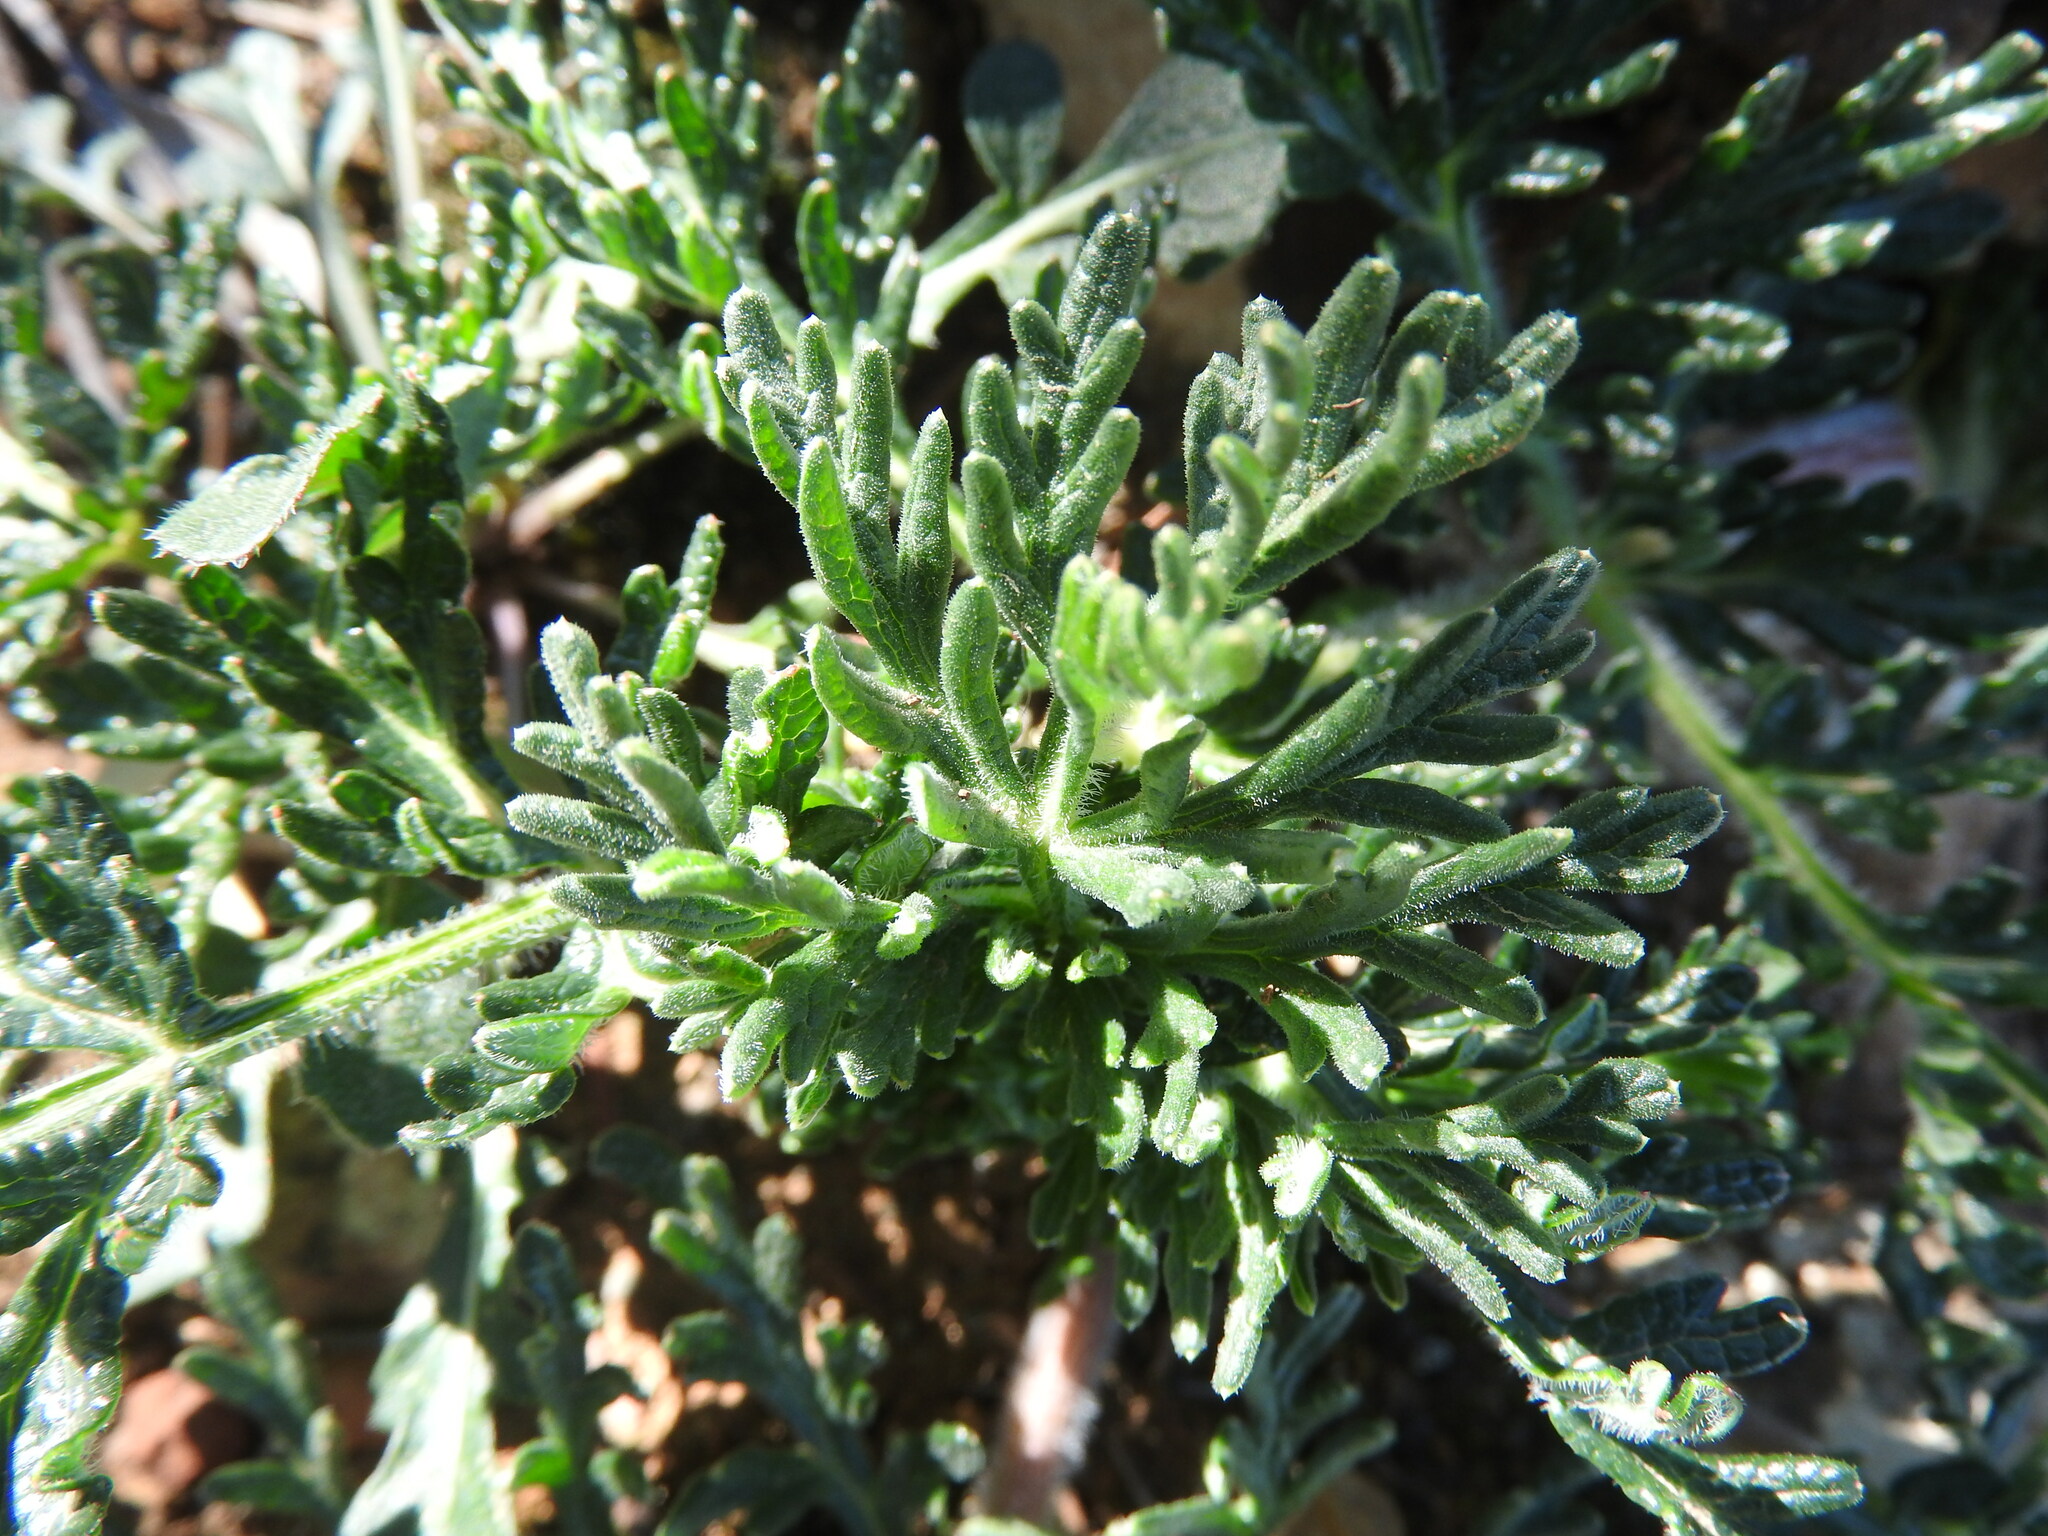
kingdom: Plantae
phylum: Tracheophyta
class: Magnoliopsida
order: Apiales
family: Apiaceae
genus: Thapsia
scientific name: Thapsia villosa
